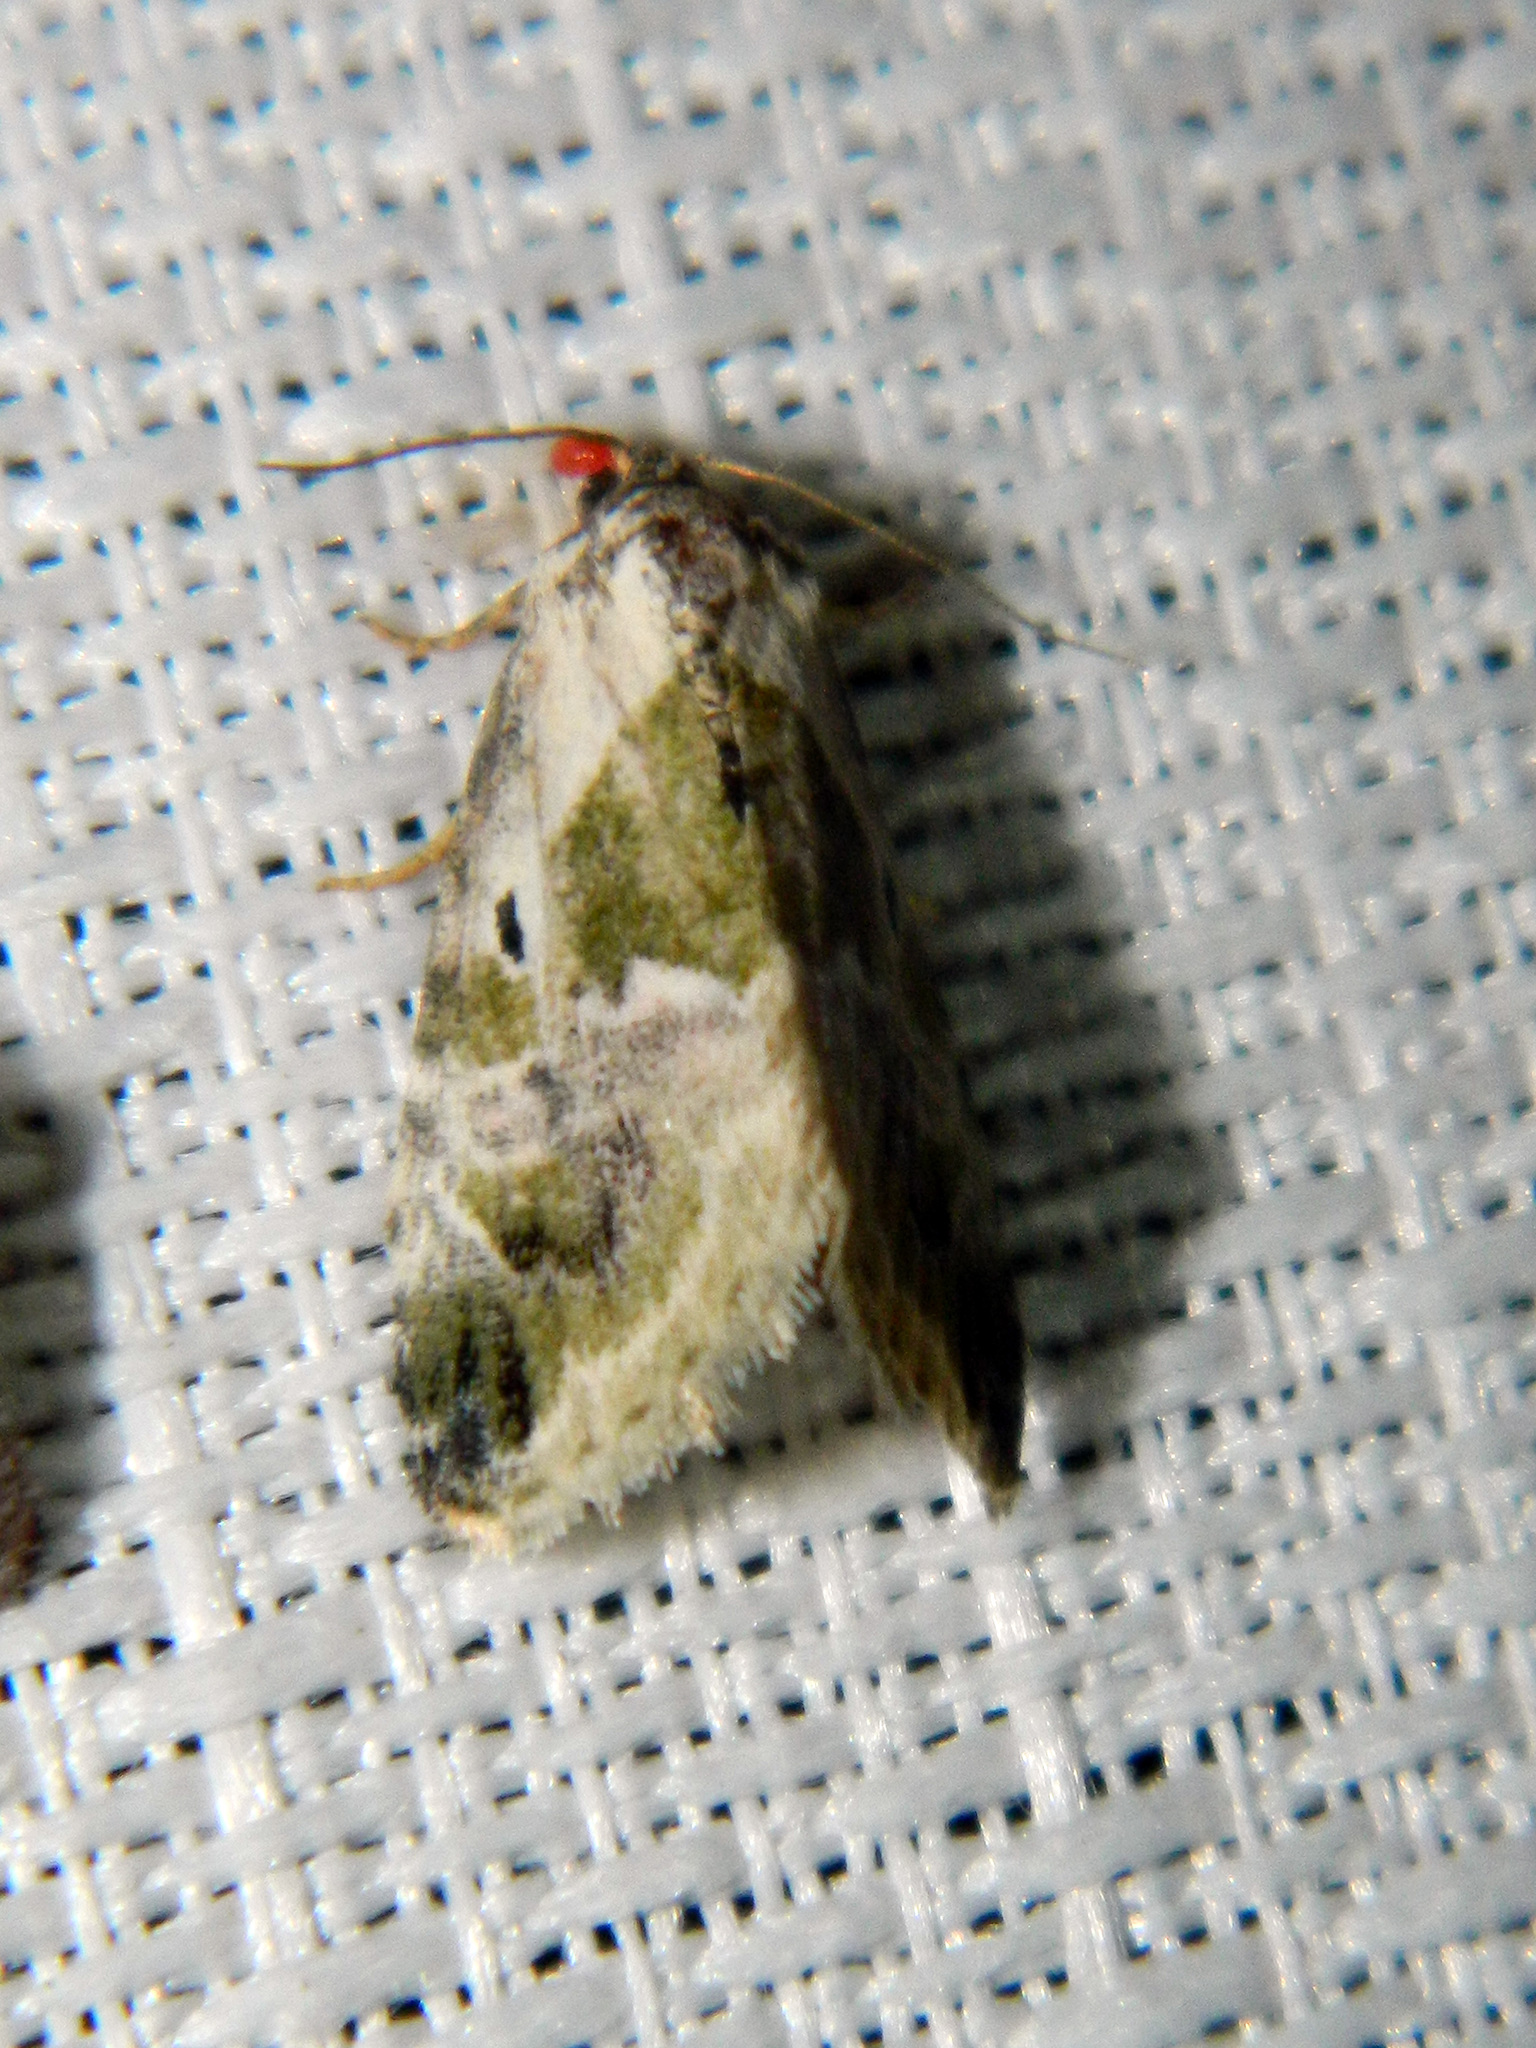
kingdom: Animalia
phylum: Arthropoda
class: Insecta
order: Lepidoptera
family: Noctuidae
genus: Maliattha
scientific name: Maliattha synochitis
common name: Black-dotted glyph
